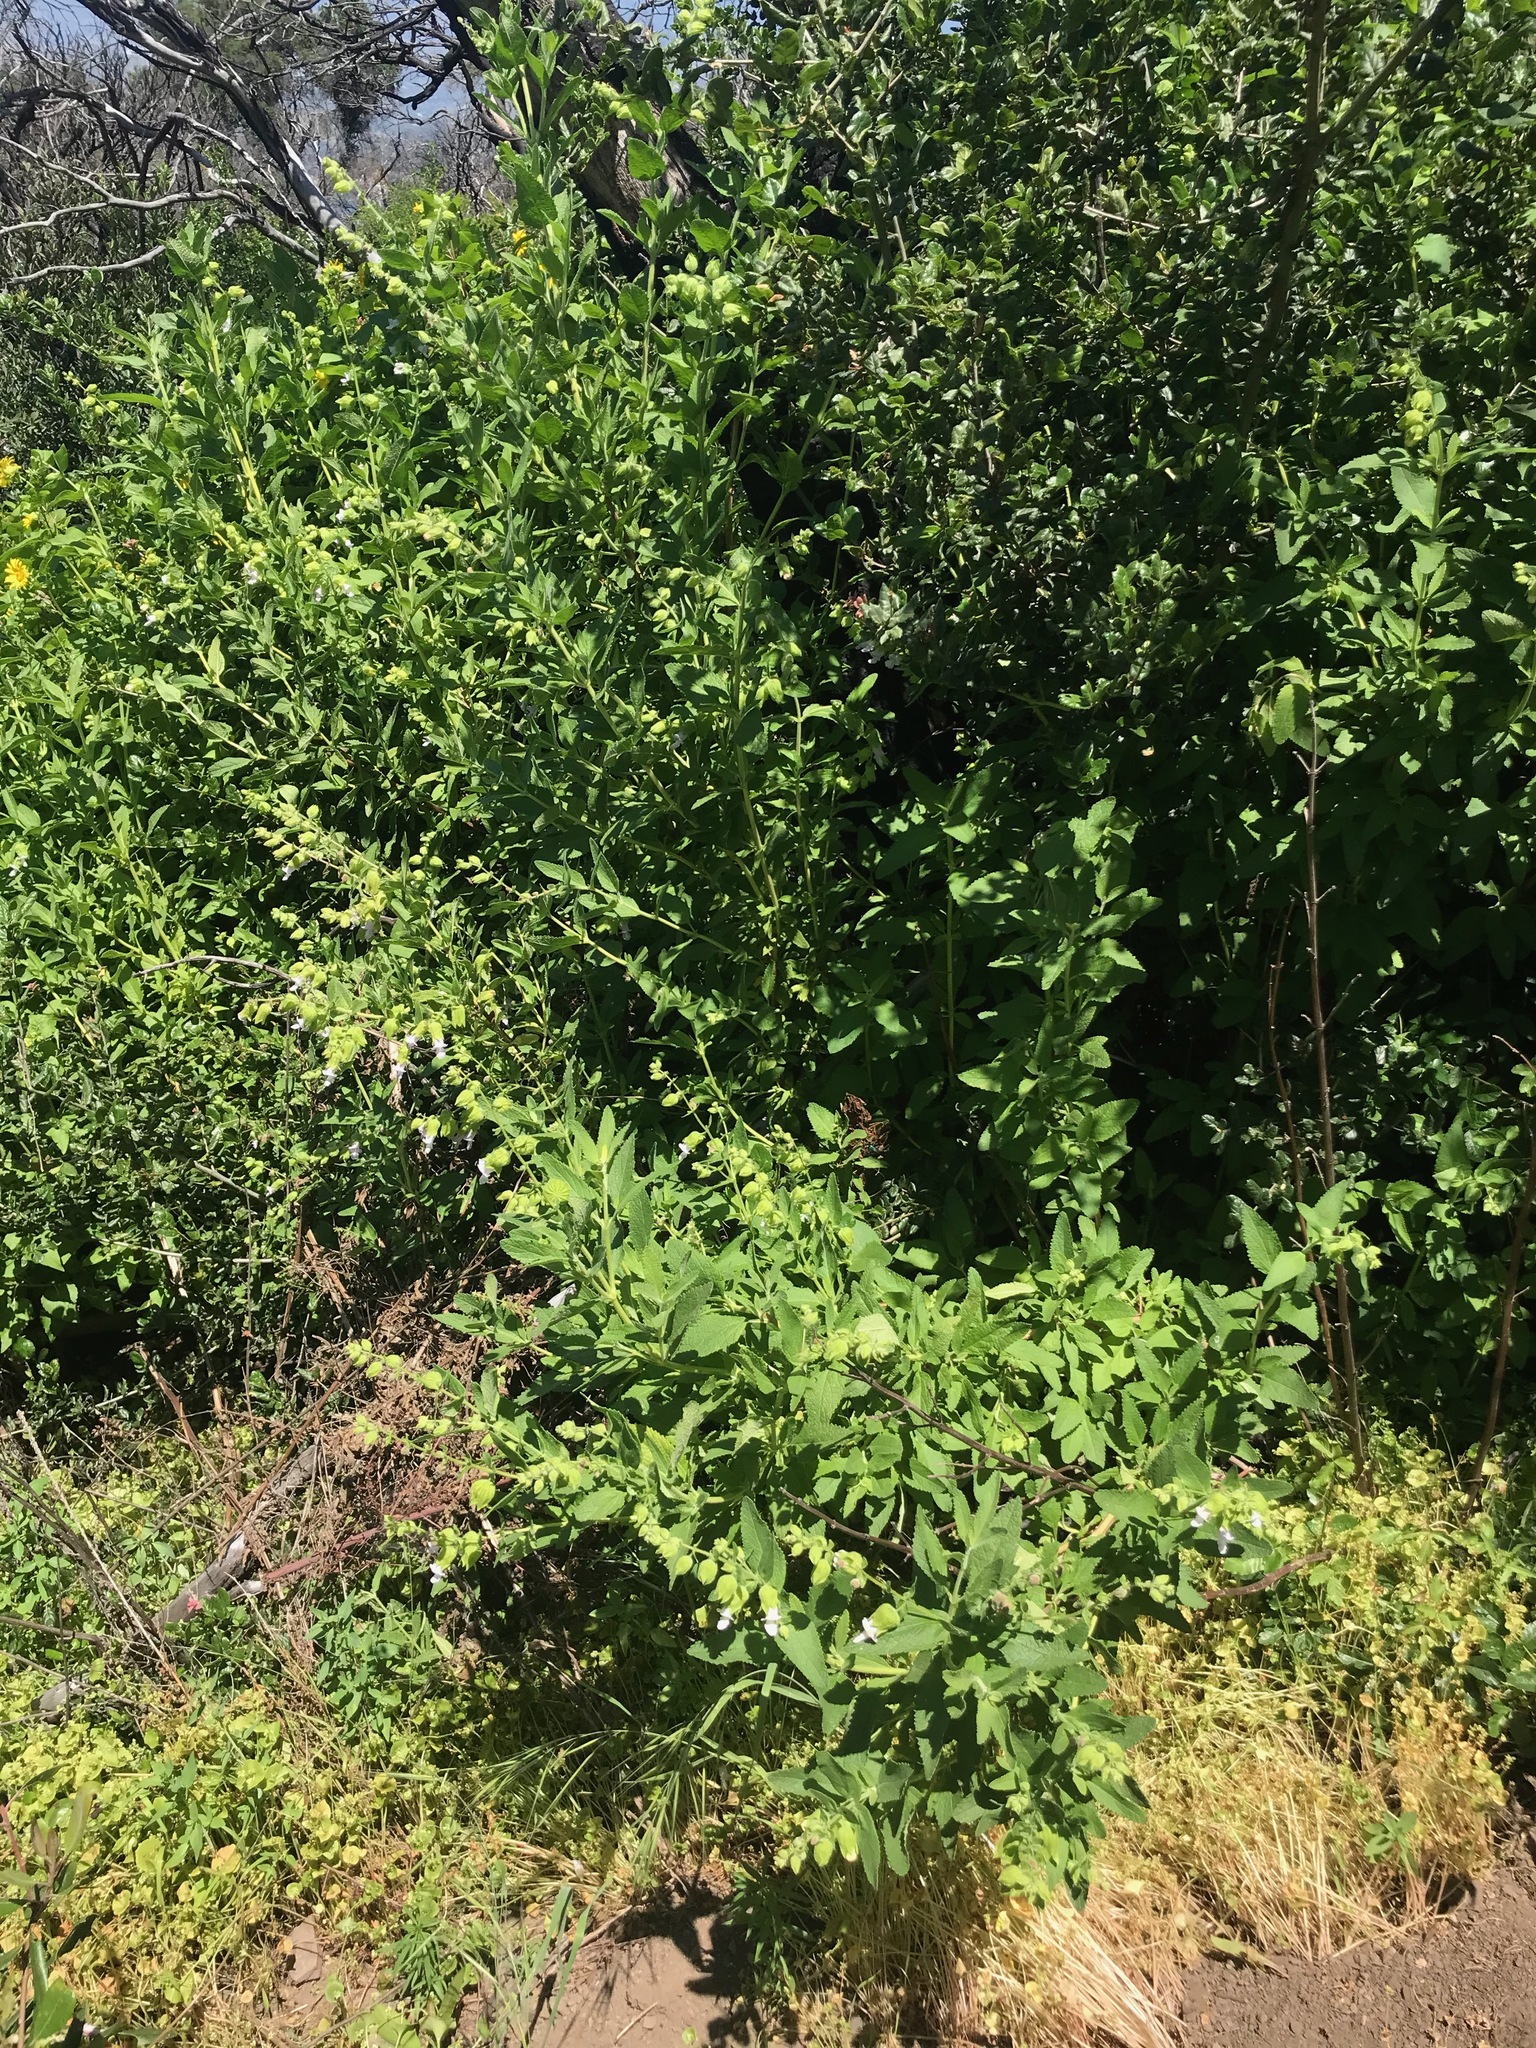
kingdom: Plantae
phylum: Tracheophyta
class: Magnoliopsida
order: Lamiales
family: Lamiaceae
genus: Lepechinia
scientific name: Lepechinia calycina
